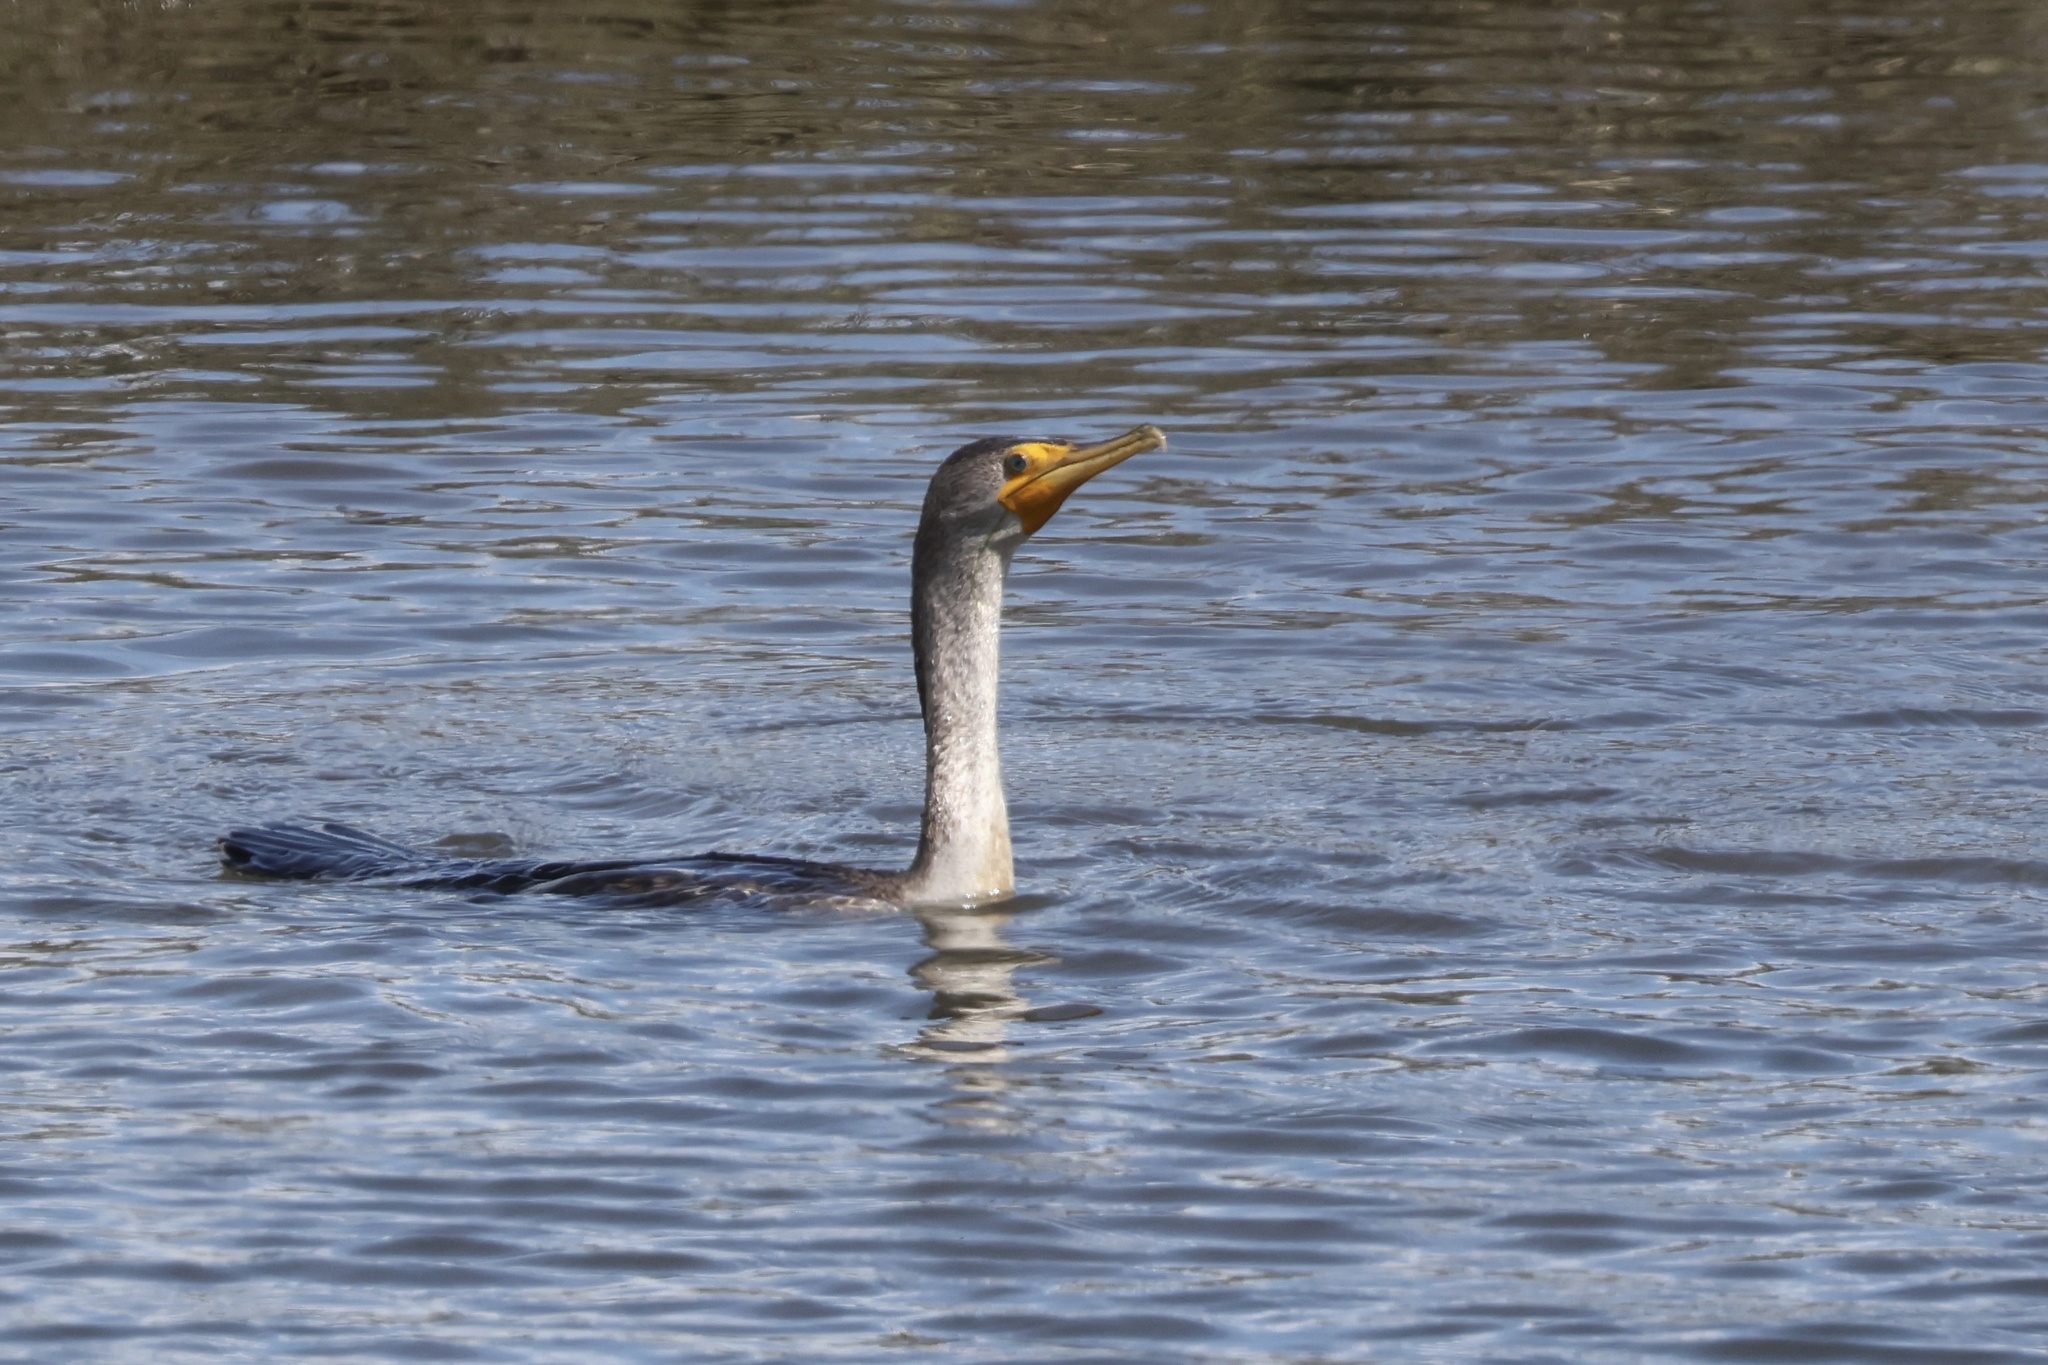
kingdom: Animalia
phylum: Chordata
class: Aves
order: Suliformes
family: Phalacrocoracidae
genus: Phalacrocorax
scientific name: Phalacrocorax auritus
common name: Double-crested cormorant
